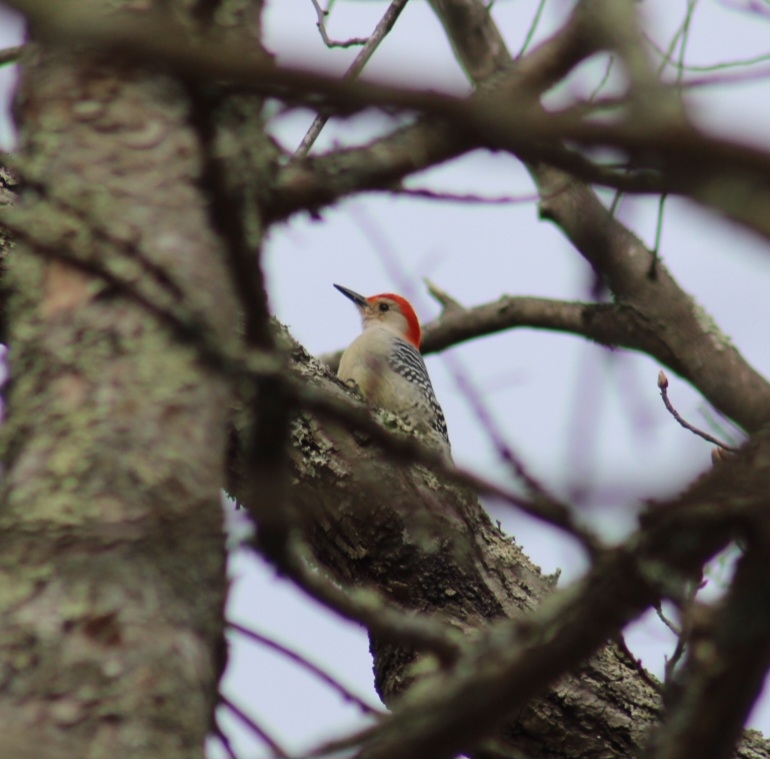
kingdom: Animalia
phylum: Chordata
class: Aves
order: Piciformes
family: Picidae
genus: Melanerpes
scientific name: Melanerpes carolinus
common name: Red-bellied woodpecker
